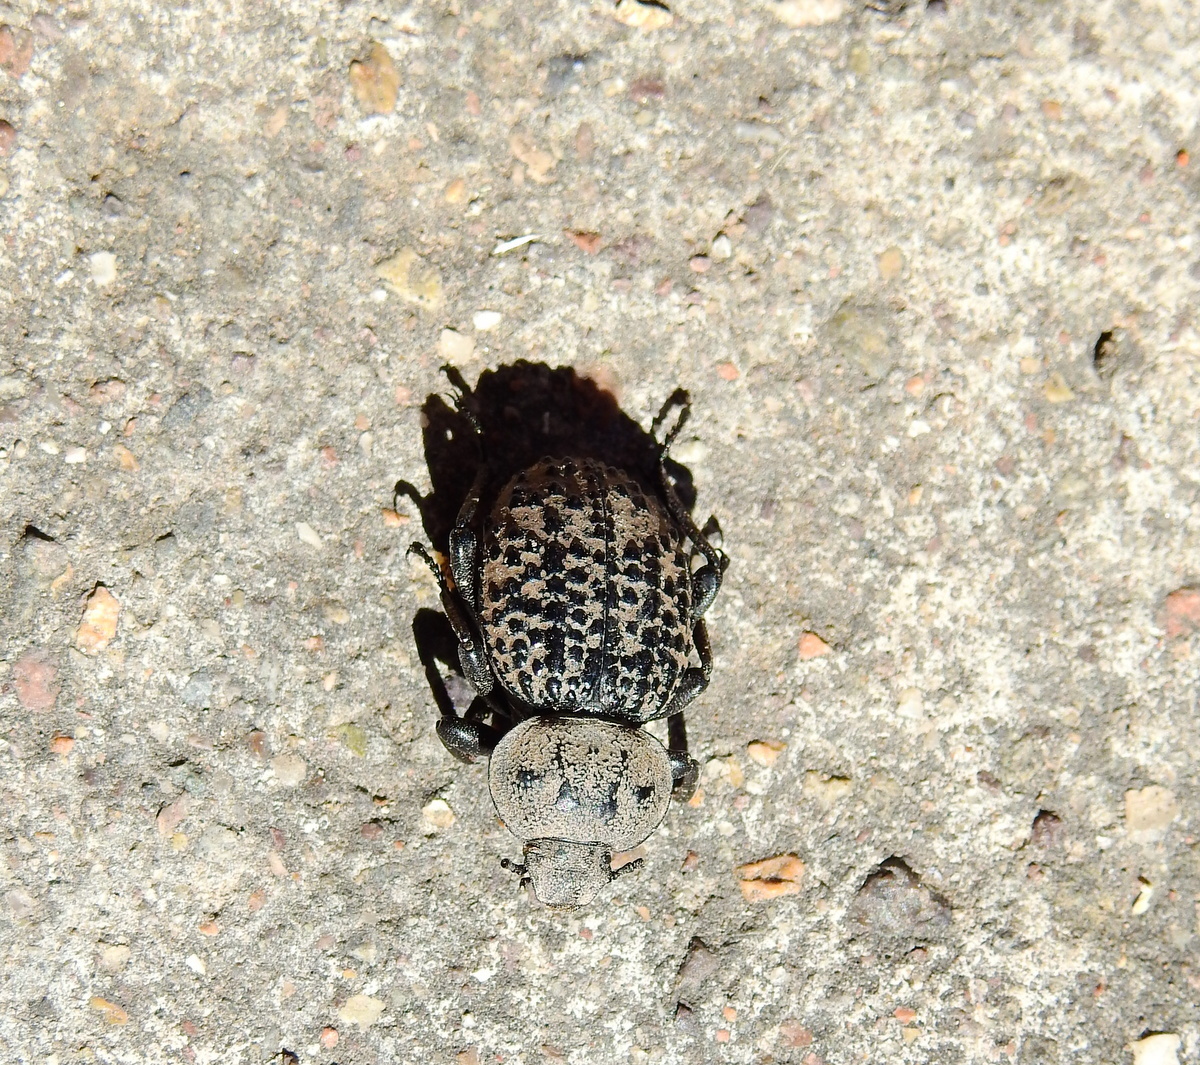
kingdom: Animalia
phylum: Arthropoda
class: Insecta
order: Coleoptera
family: Tenebrionidae
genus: Scotobius
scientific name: Scotobius pilularius
